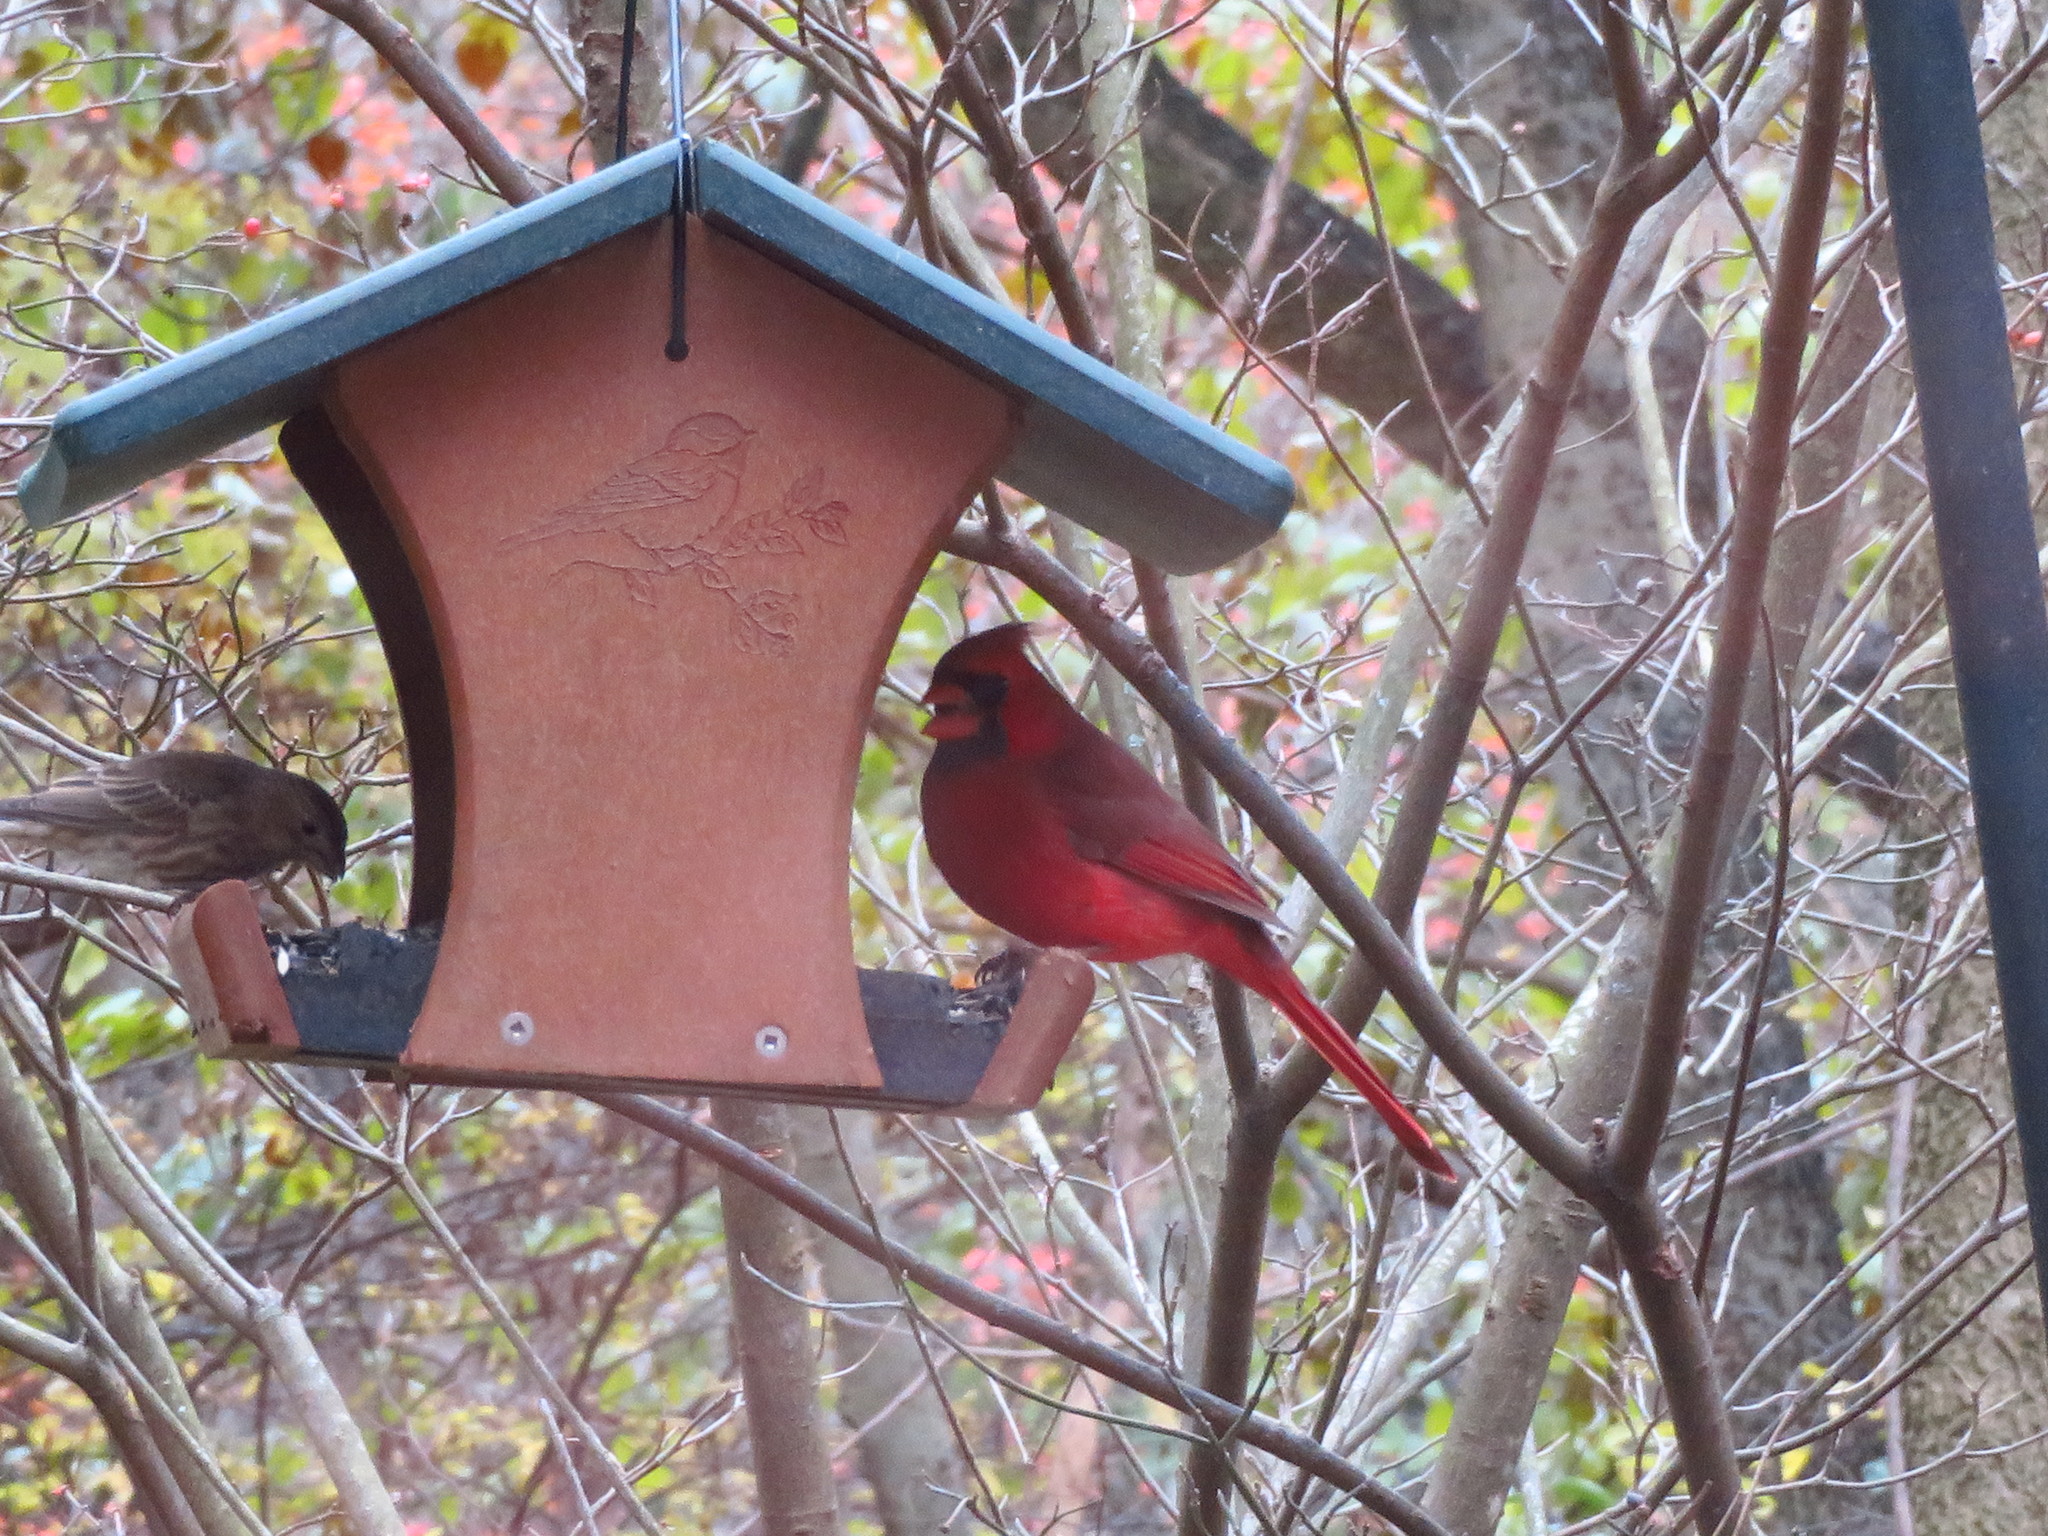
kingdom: Animalia
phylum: Chordata
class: Aves
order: Passeriformes
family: Fringillidae
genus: Haemorhous
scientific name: Haemorhous mexicanus
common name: House finch
